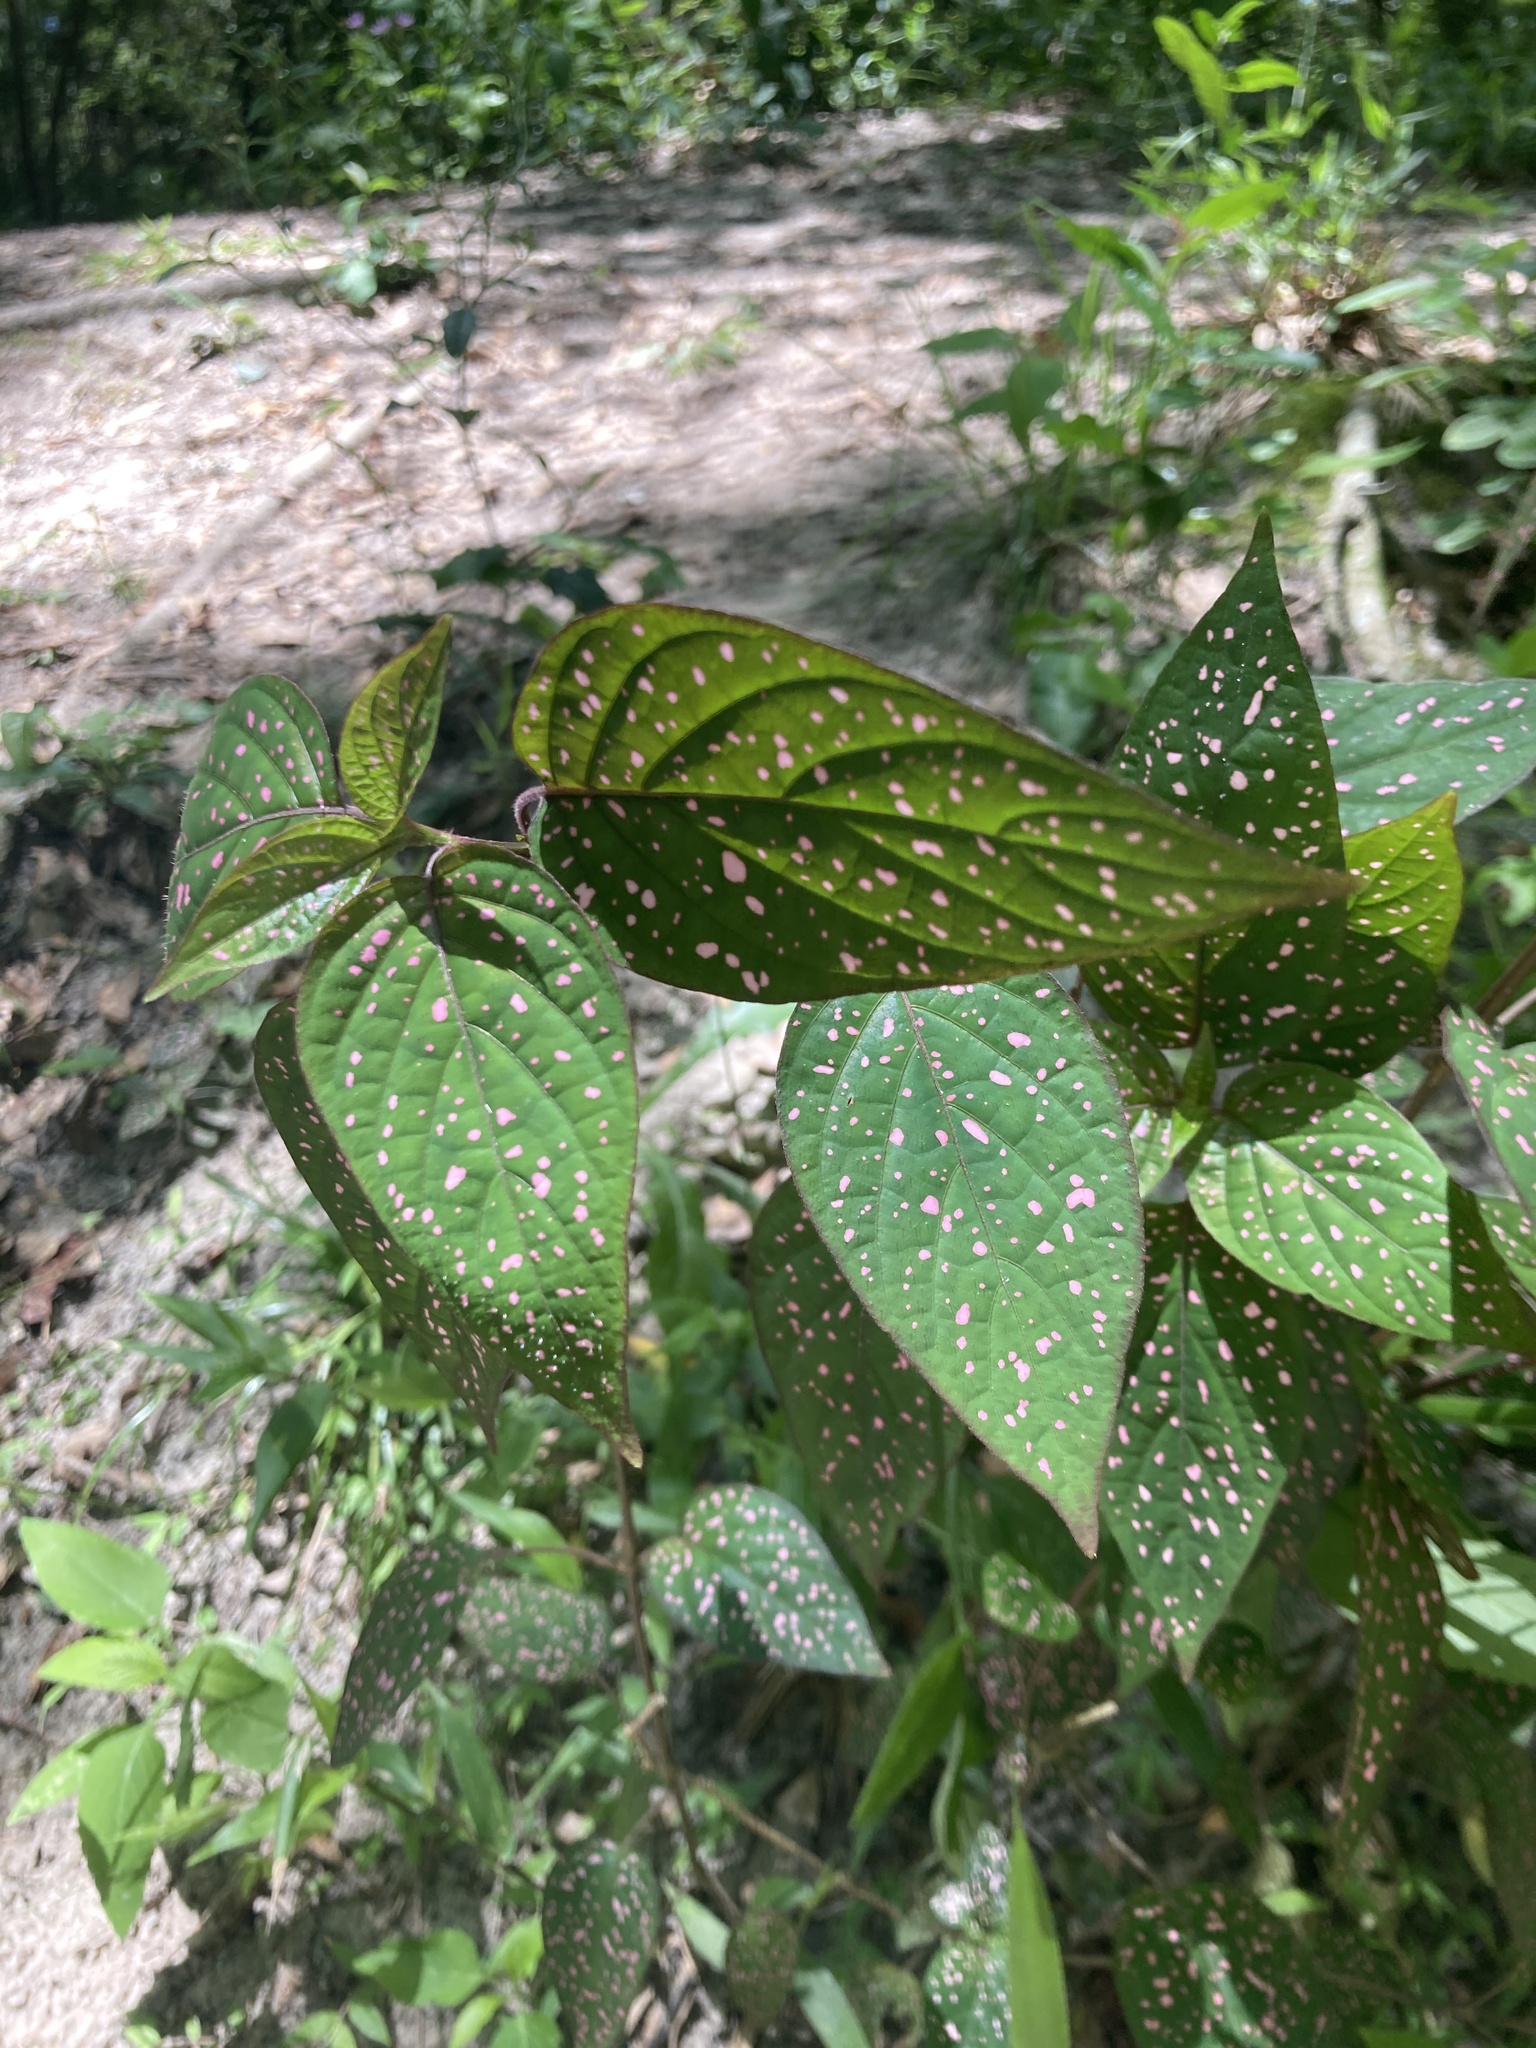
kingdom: Plantae
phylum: Tracheophyta
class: Magnoliopsida
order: Lamiales
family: Acanthaceae
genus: Hypoestes
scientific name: Hypoestes phyllostachya
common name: Polkadot-plant
